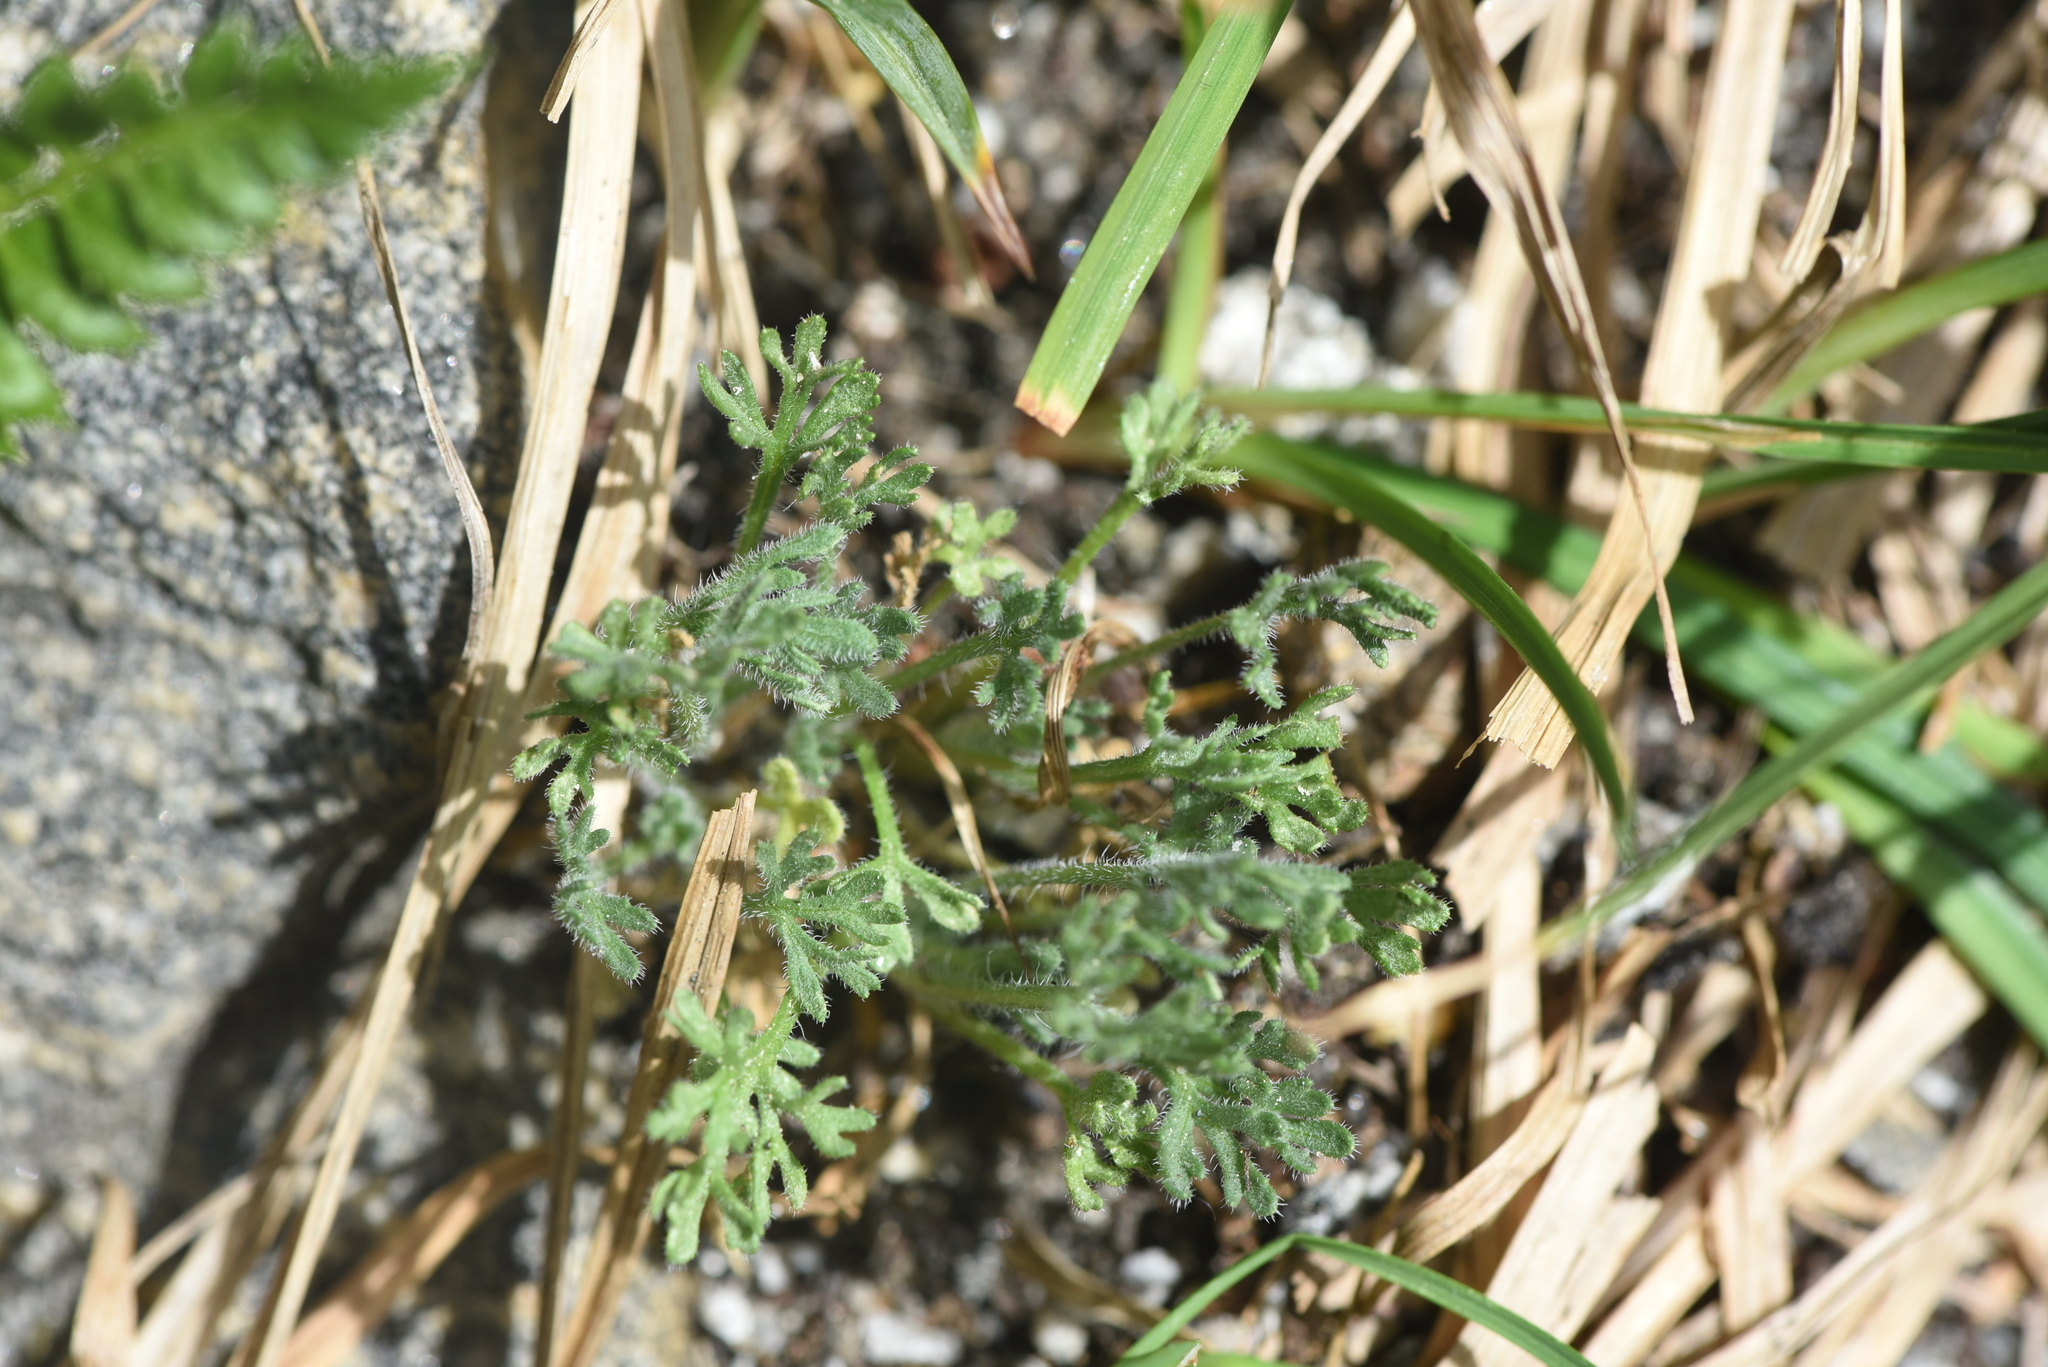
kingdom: Plantae
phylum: Tracheophyta
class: Magnoliopsida
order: Asterales
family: Asteraceae
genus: Erigeron
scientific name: Erigeron compositus
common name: Dwarf mountain fleabane
